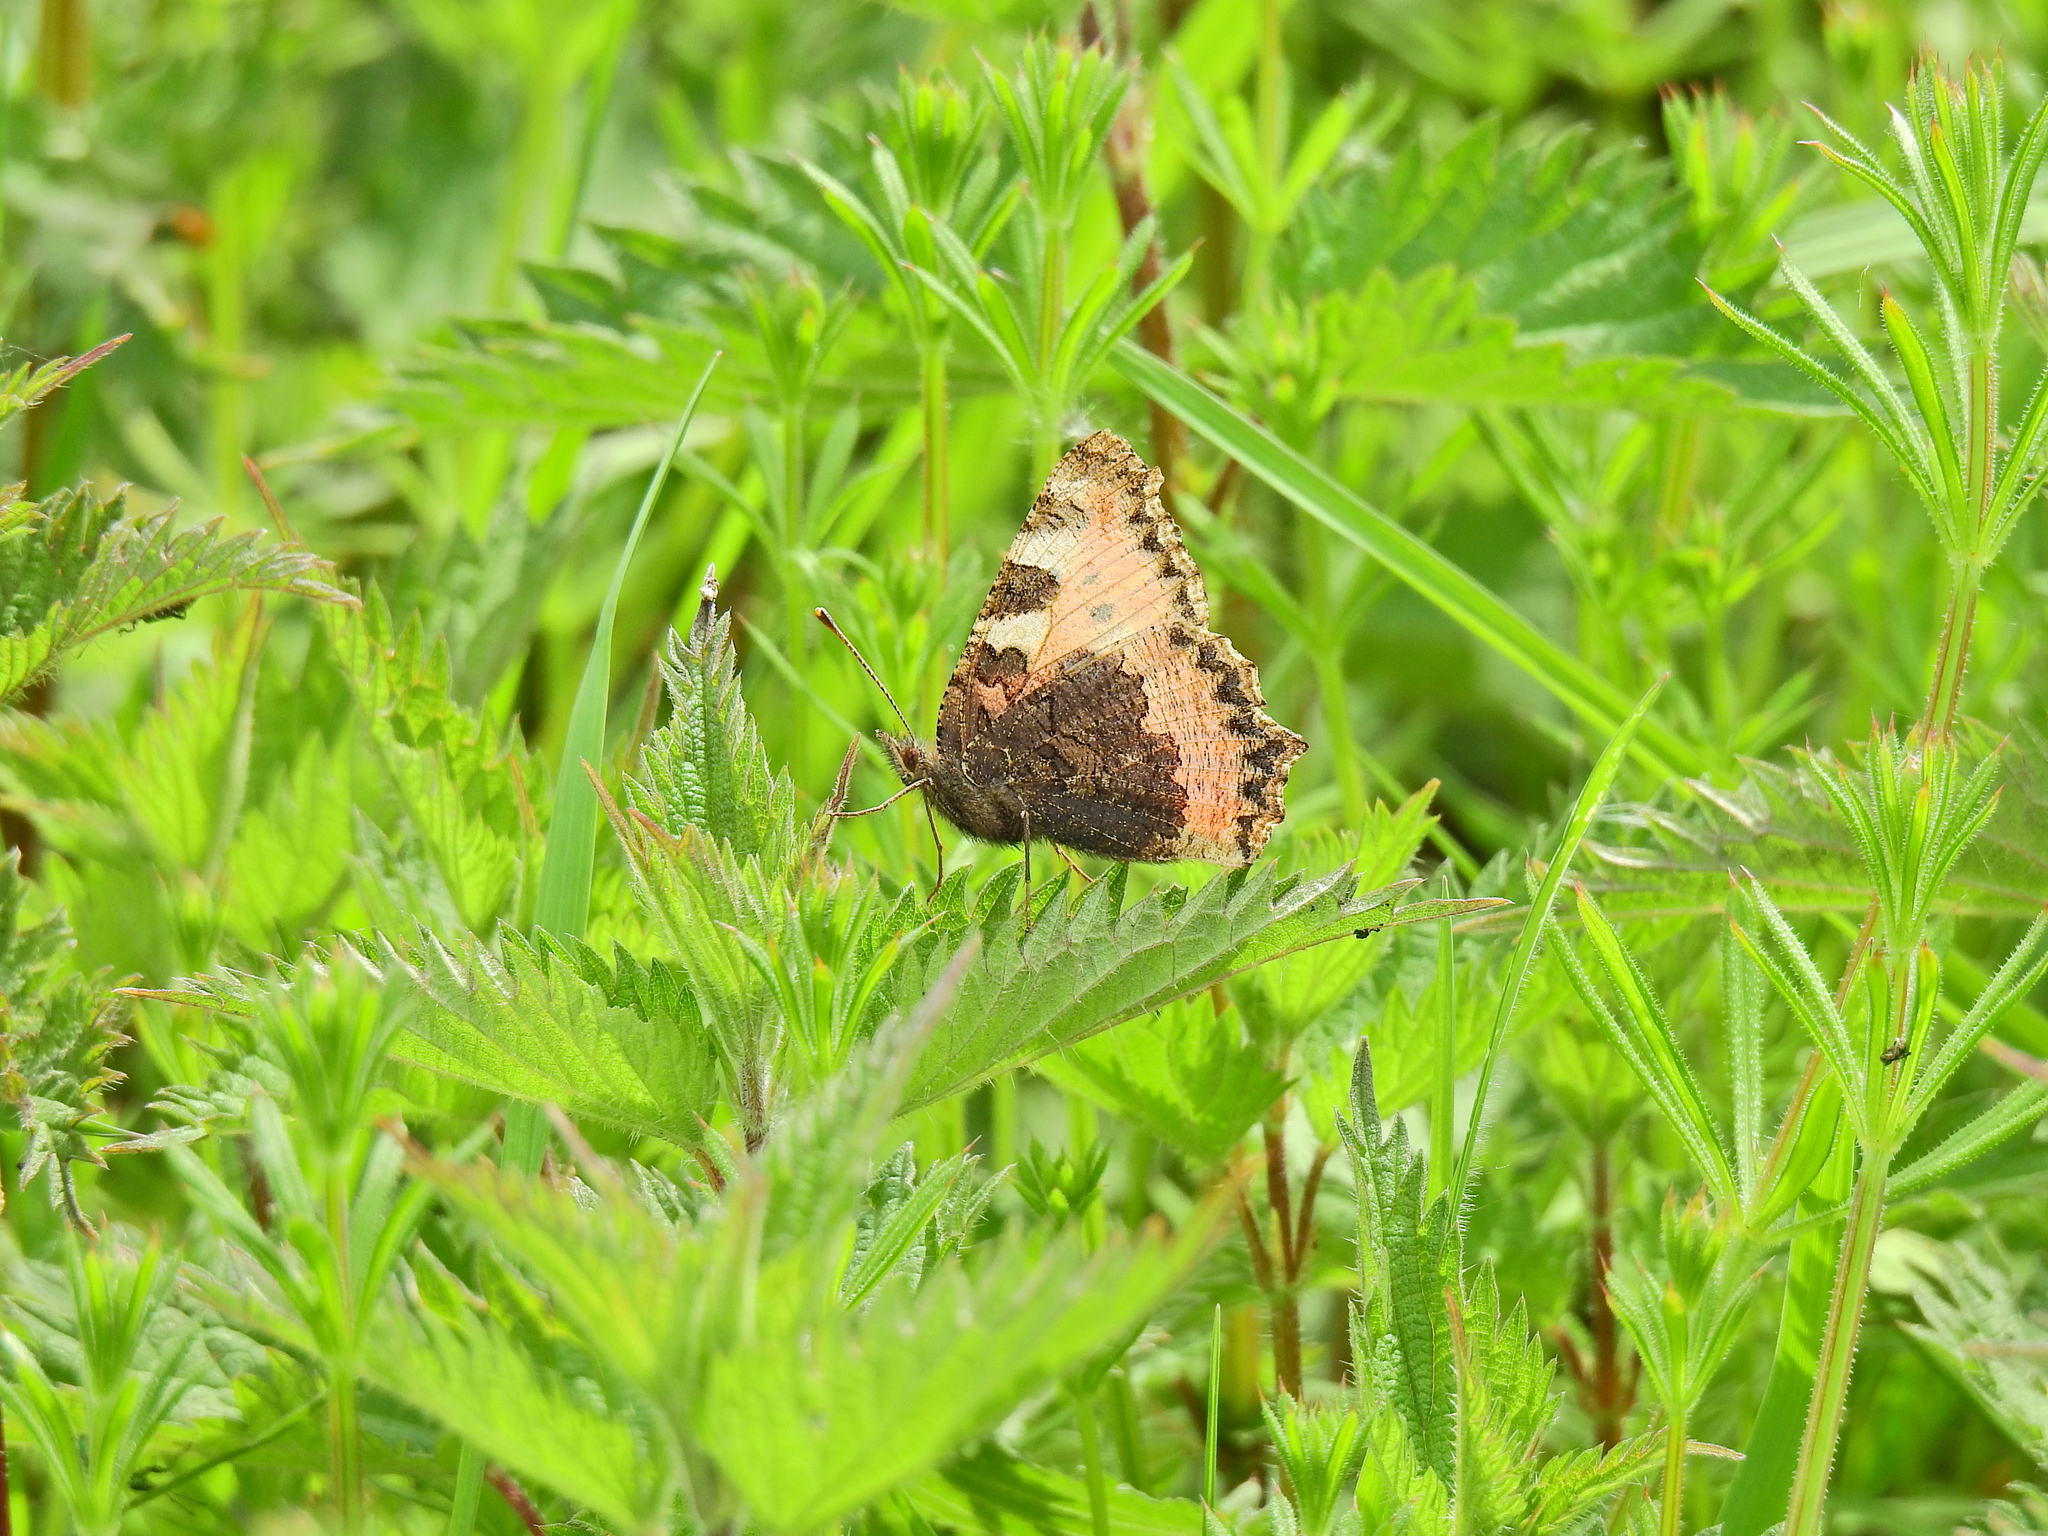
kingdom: Animalia
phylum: Arthropoda
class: Insecta
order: Lepidoptera
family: Nymphalidae
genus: Aglais
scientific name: Aglais urticae
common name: Small tortoiseshell
